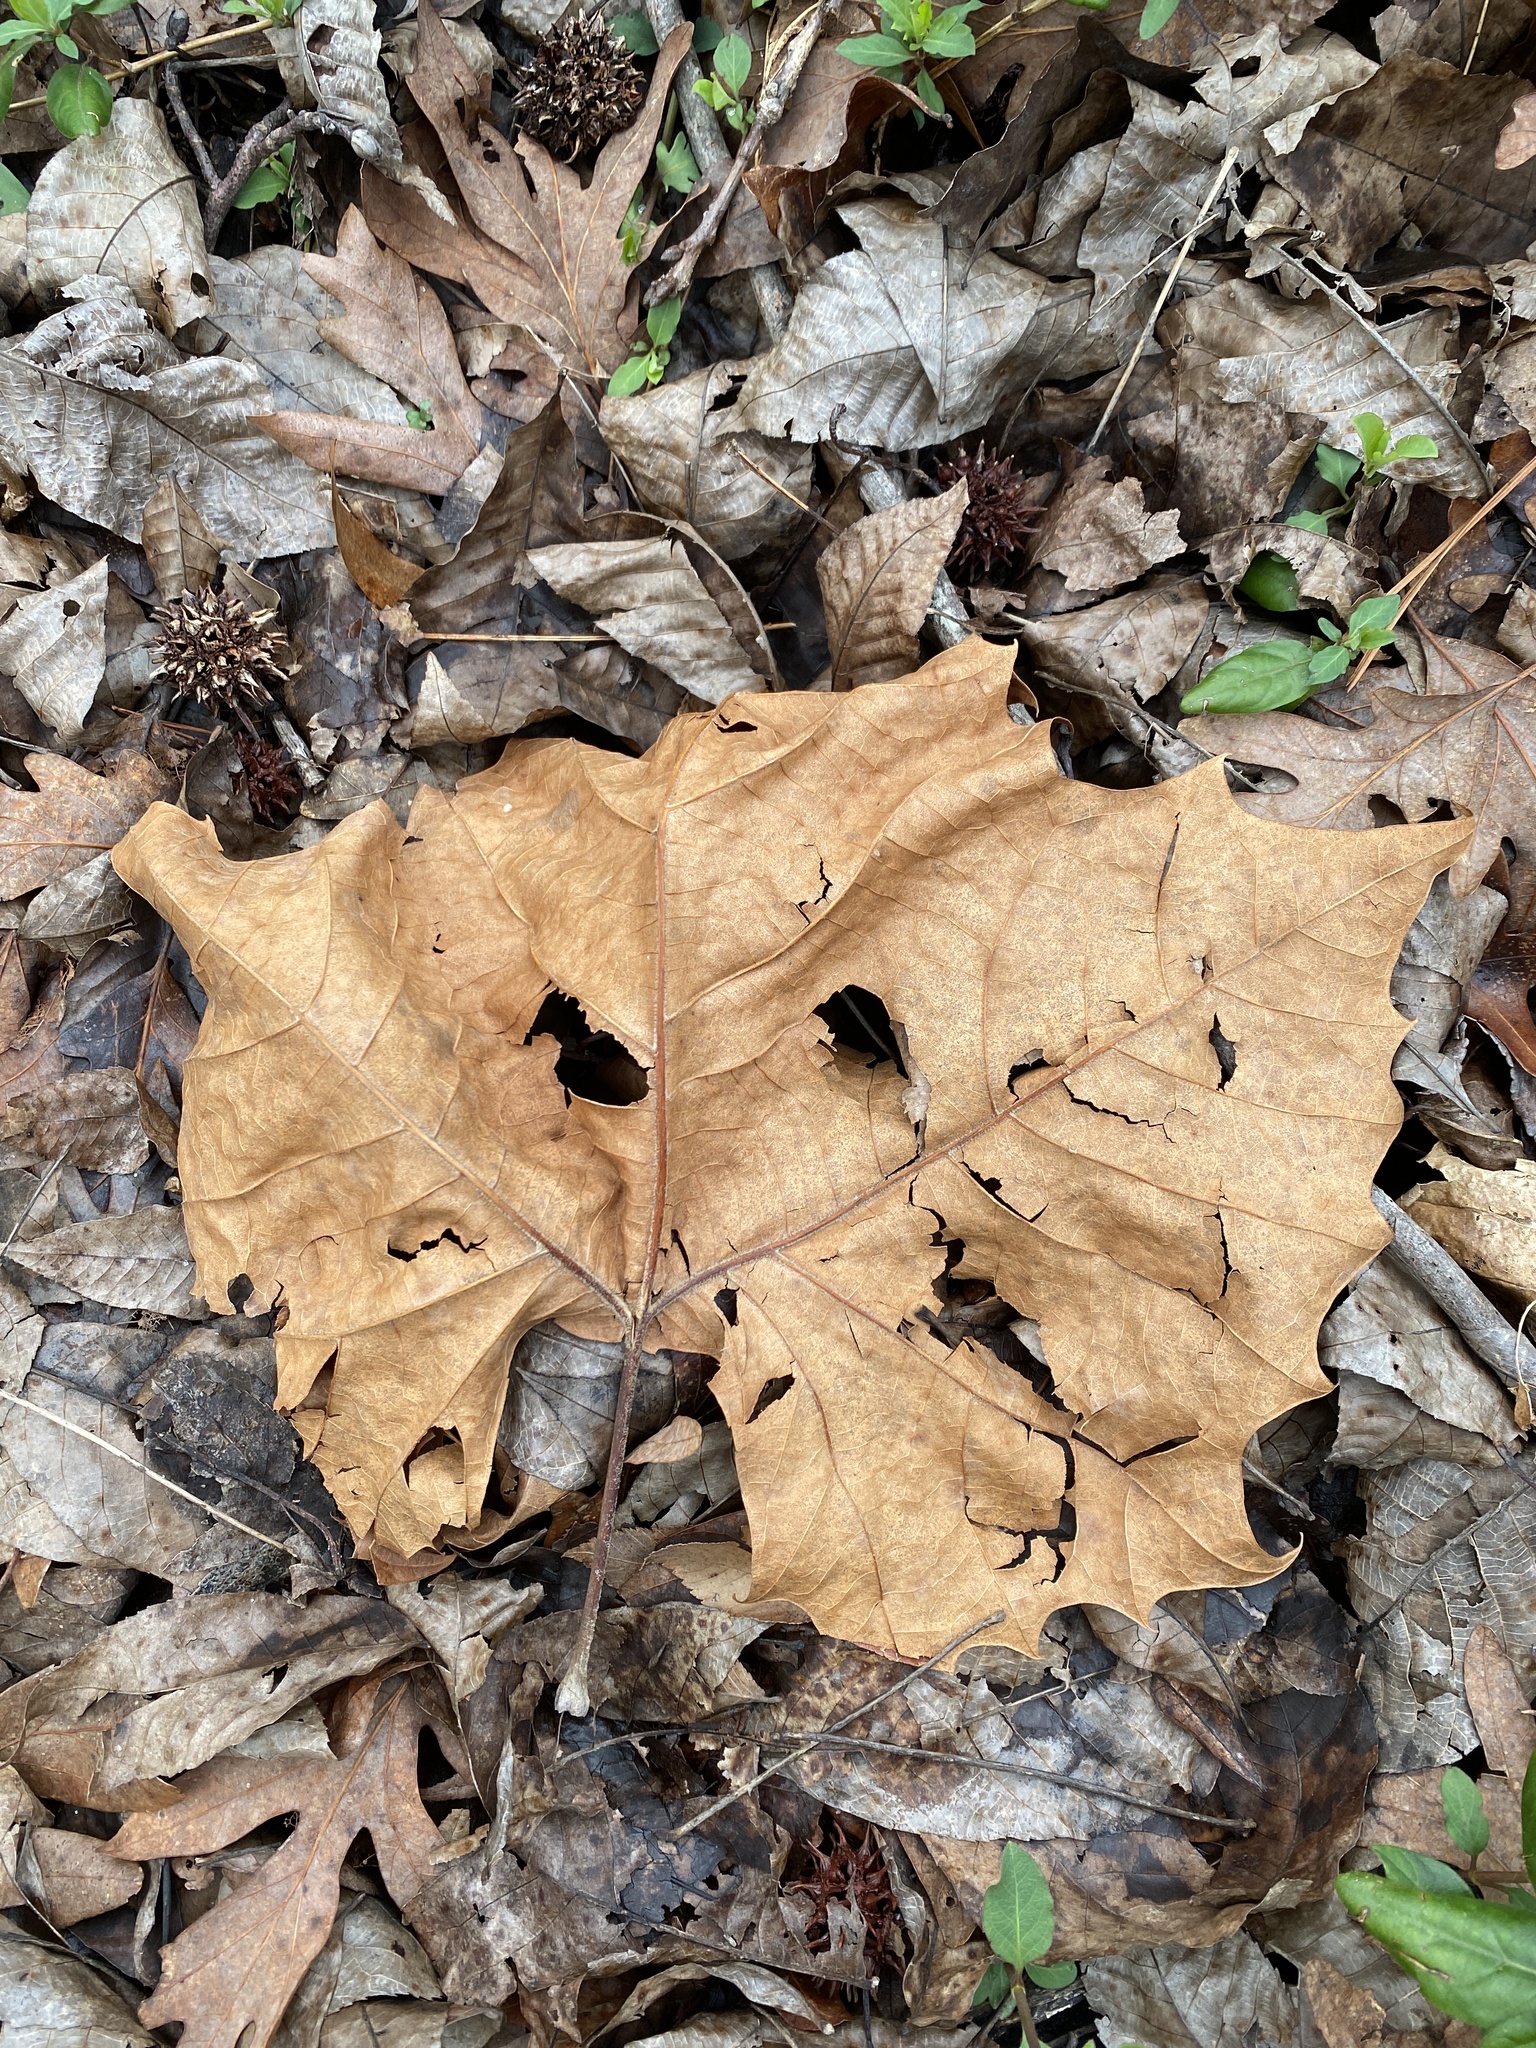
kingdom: Plantae
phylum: Tracheophyta
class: Magnoliopsida
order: Proteales
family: Platanaceae
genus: Platanus
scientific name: Platanus occidentalis
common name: American sycamore
